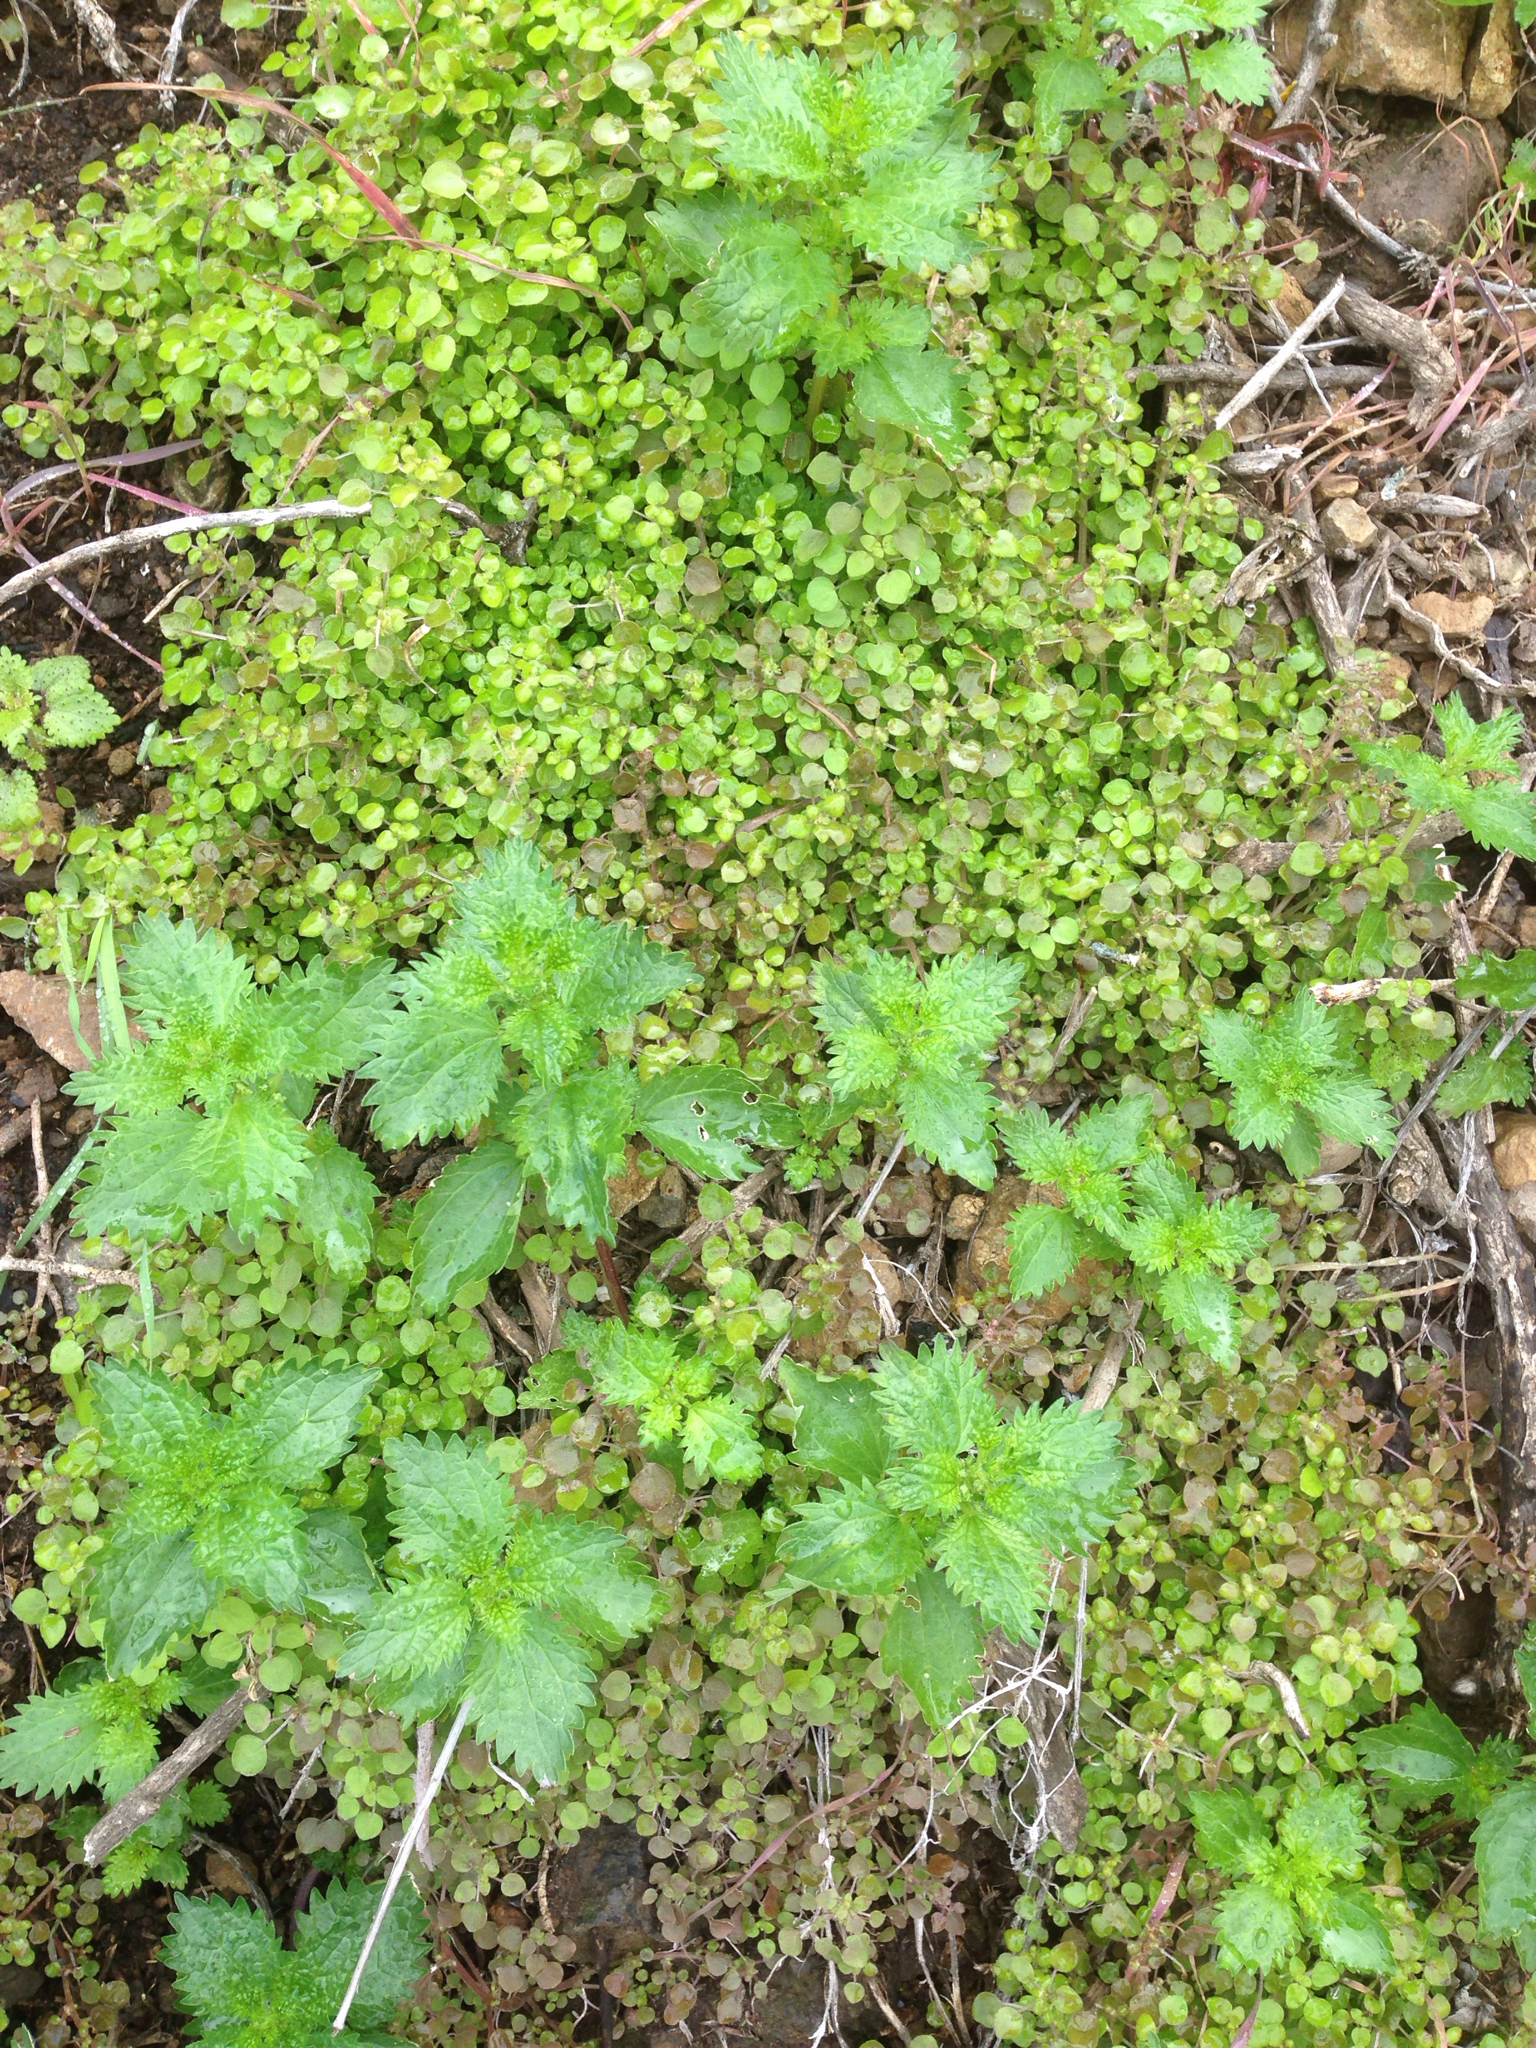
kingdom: Plantae
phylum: Tracheophyta
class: Magnoliopsida
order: Rosales
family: Urticaceae
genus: Urtica
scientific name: Urtica urens
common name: Dwarf nettle
